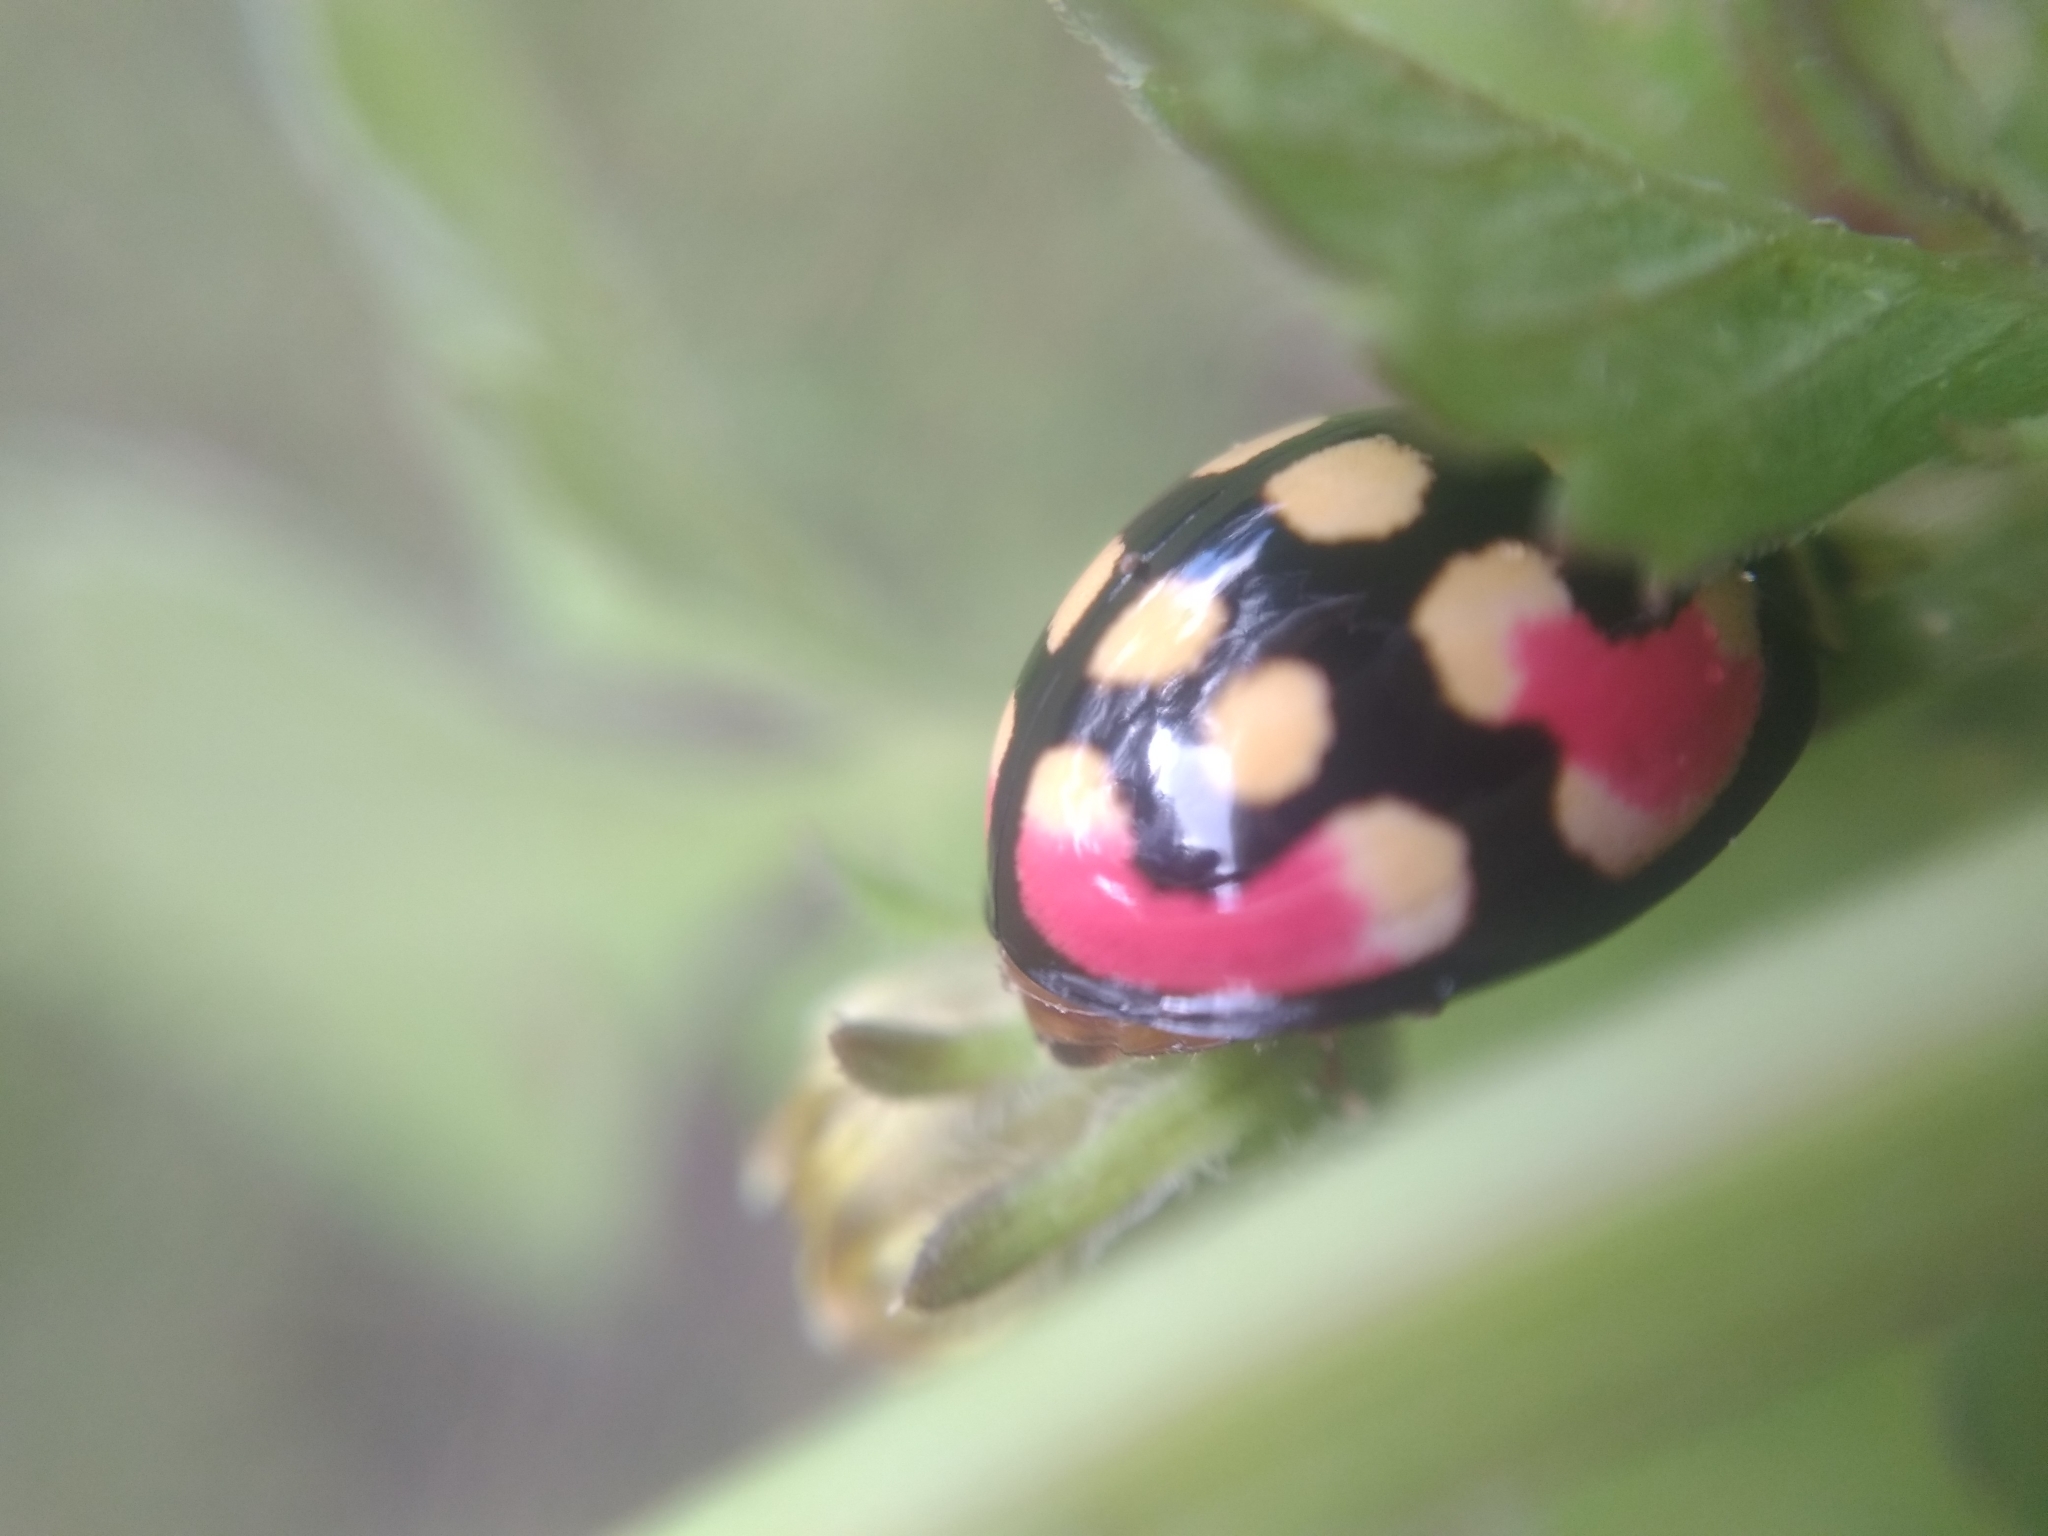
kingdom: Animalia
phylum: Arthropoda
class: Insecta
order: Coleoptera
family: Coccinellidae
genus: Cheilomenes
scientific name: Cheilomenes sulphurea
